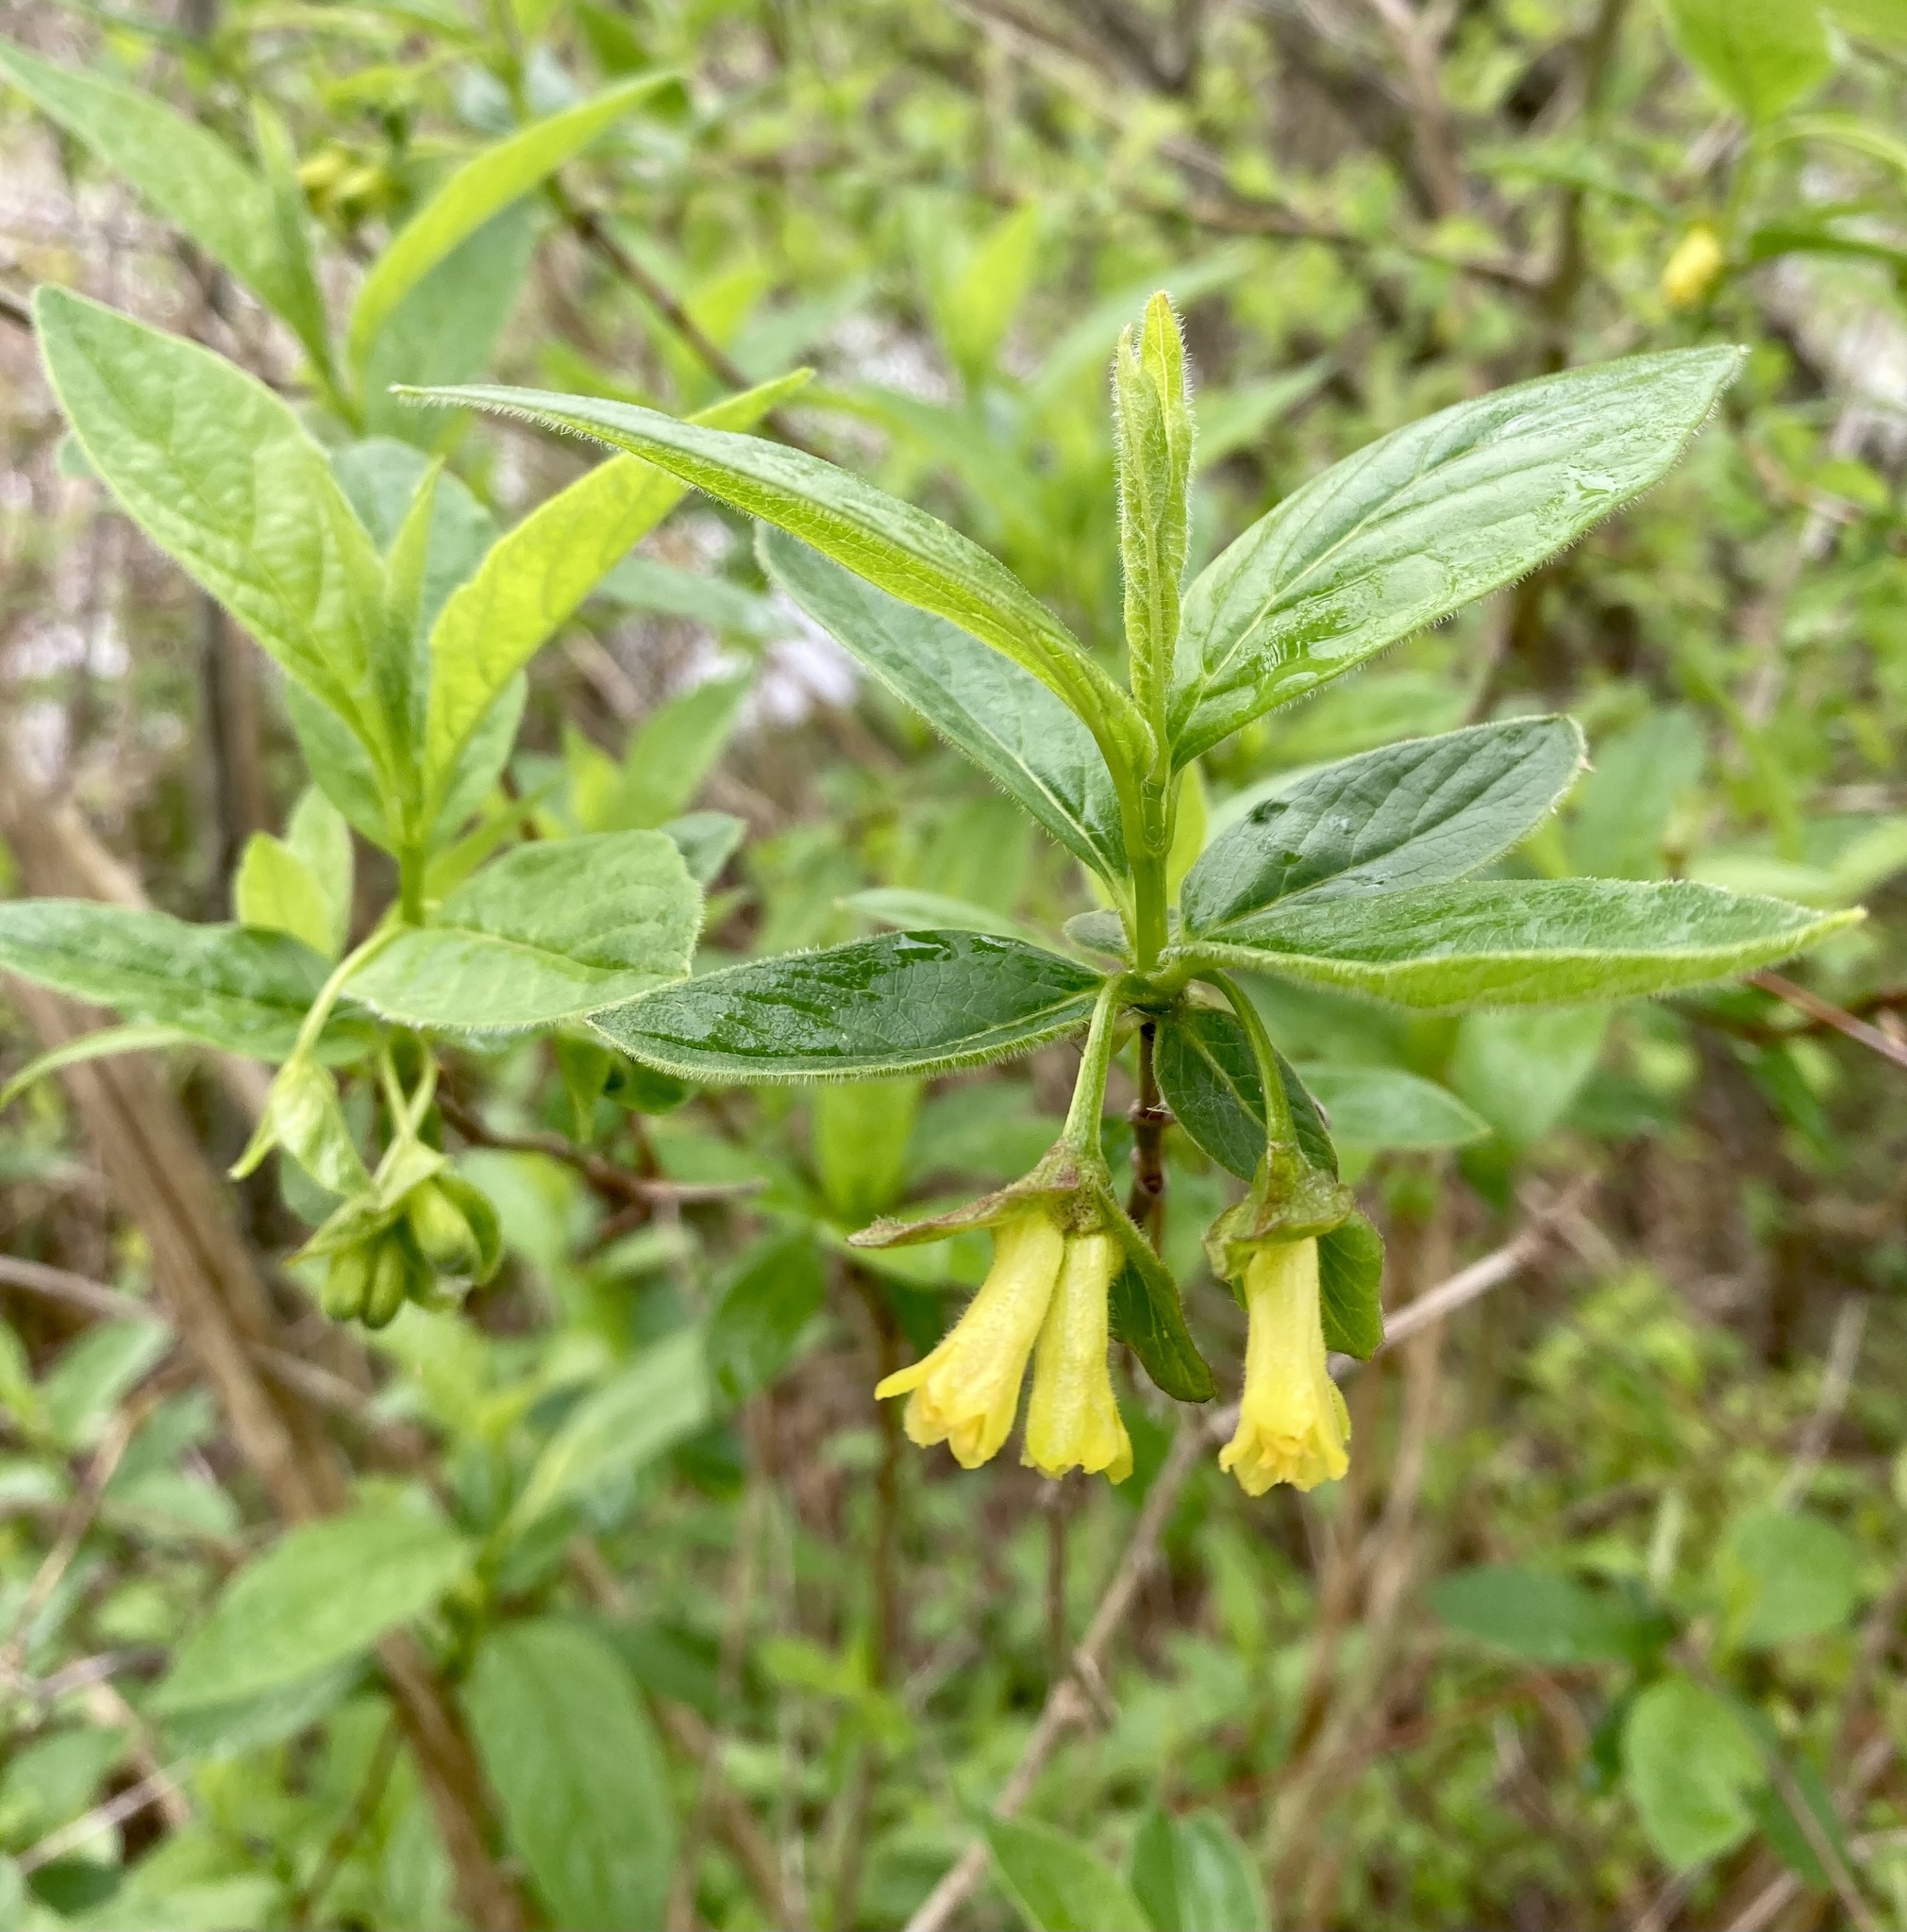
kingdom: Plantae
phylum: Tracheophyta
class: Magnoliopsida
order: Dipsacales
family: Caprifoliaceae
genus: Lonicera
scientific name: Lonicera involucrata
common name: Californian honeysuckle
